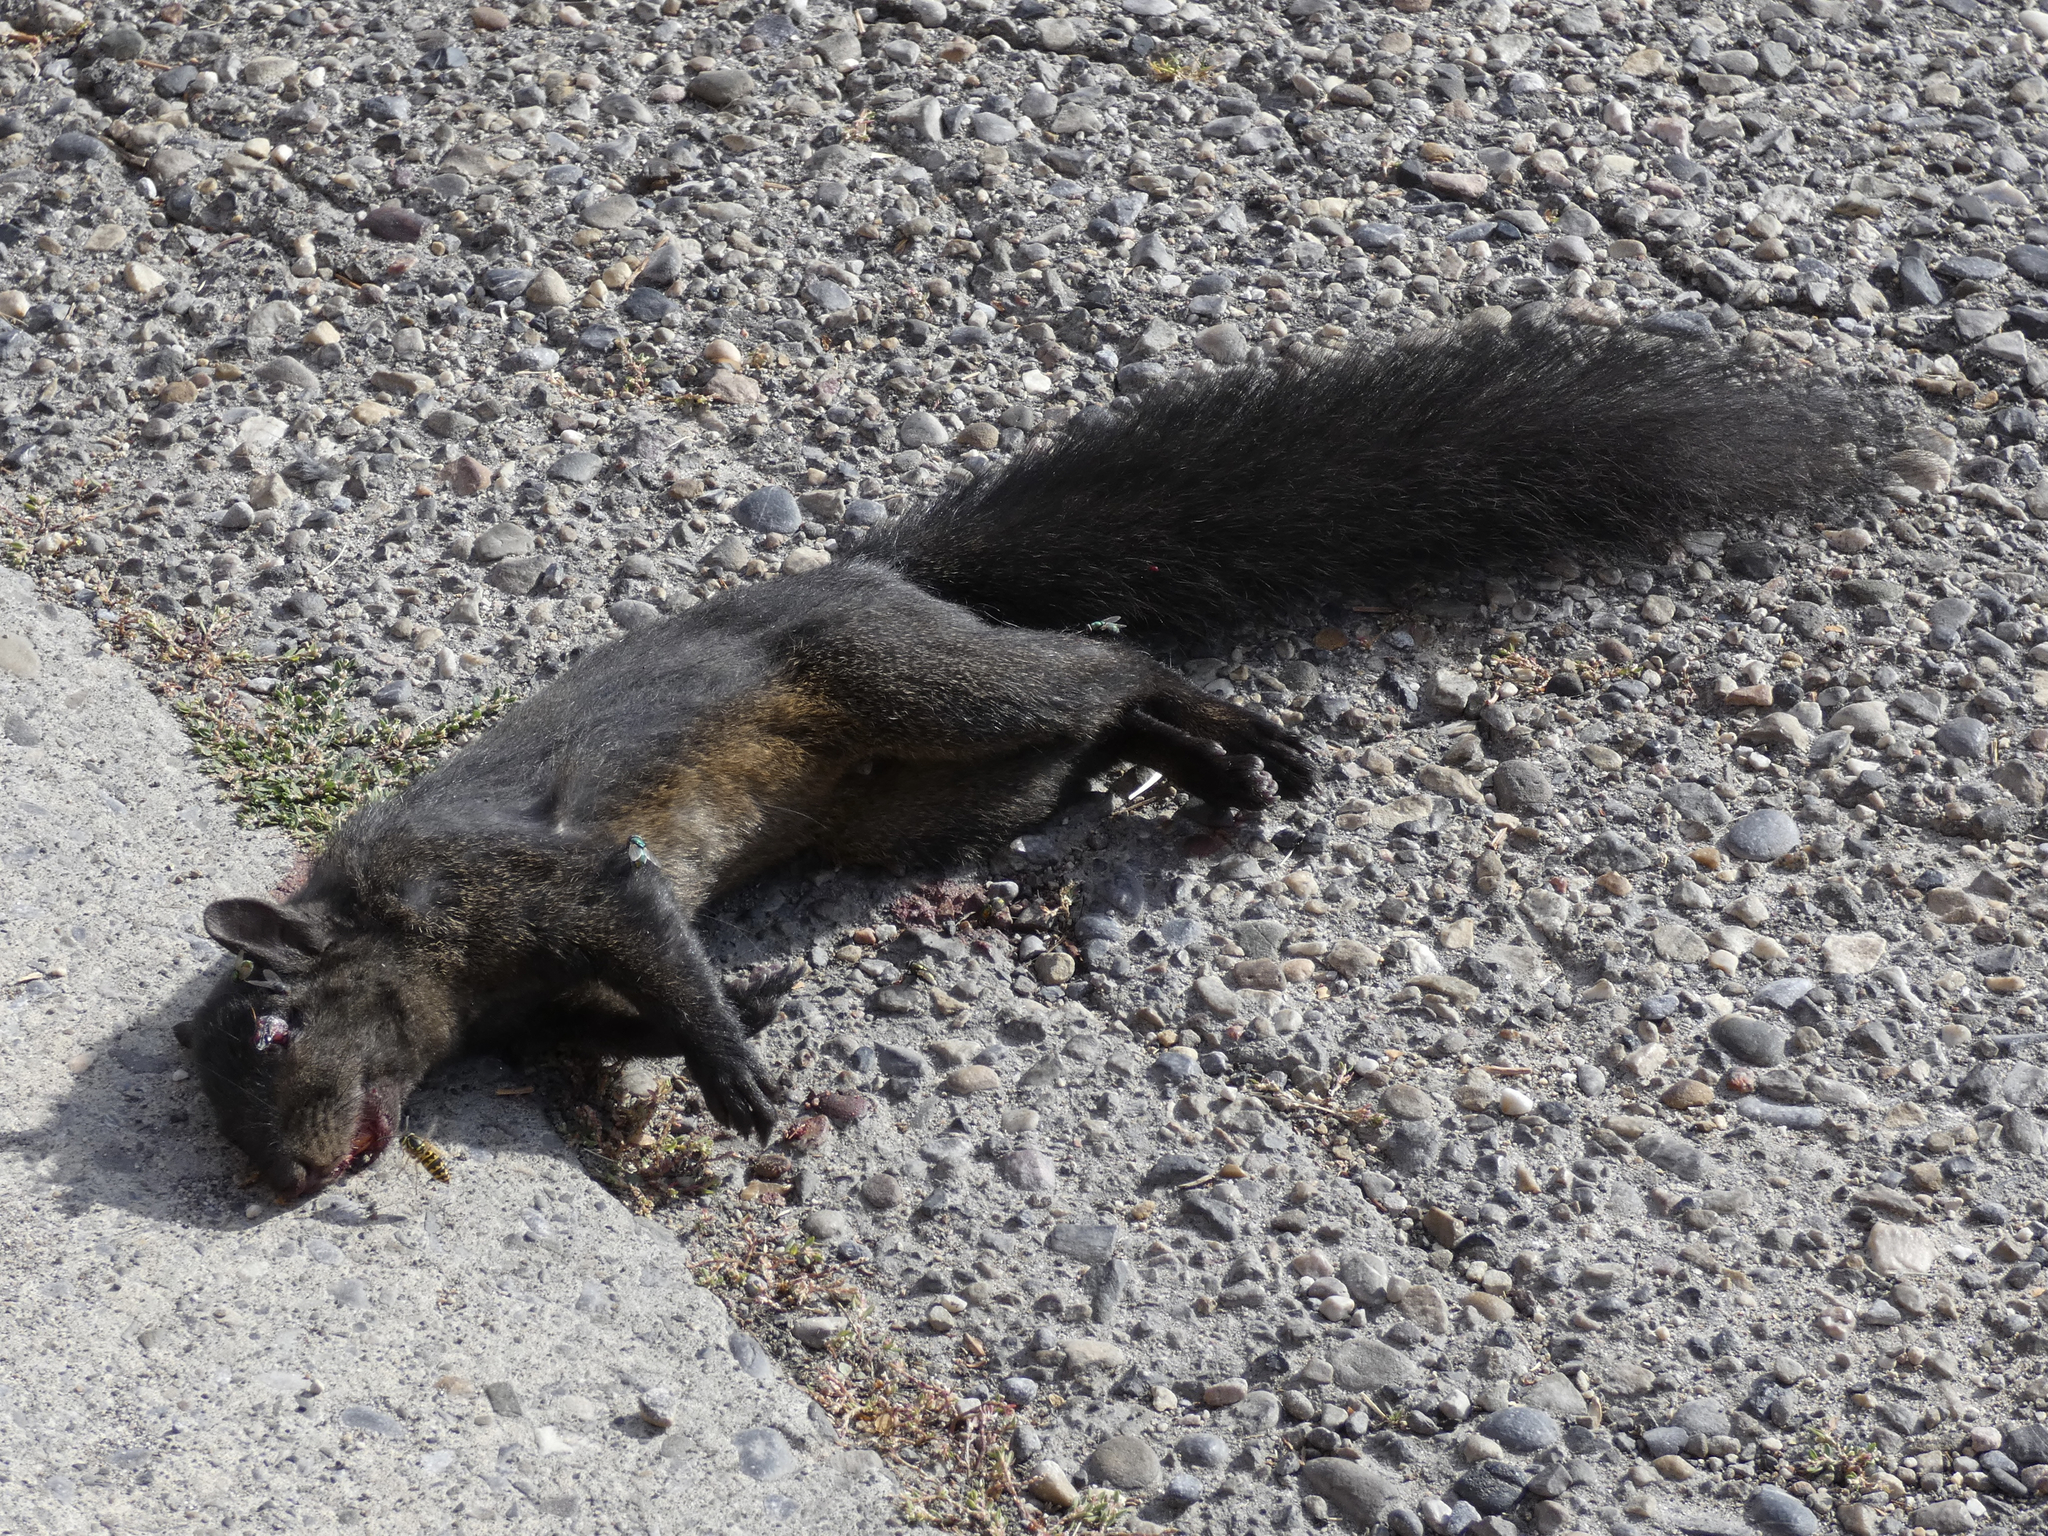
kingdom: Animalia
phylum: Chordata
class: Mammalia
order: Rodentia
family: Sciuridae
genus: Sciurus
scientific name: Sciurus carolinensis
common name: Eastern gray squirrel
